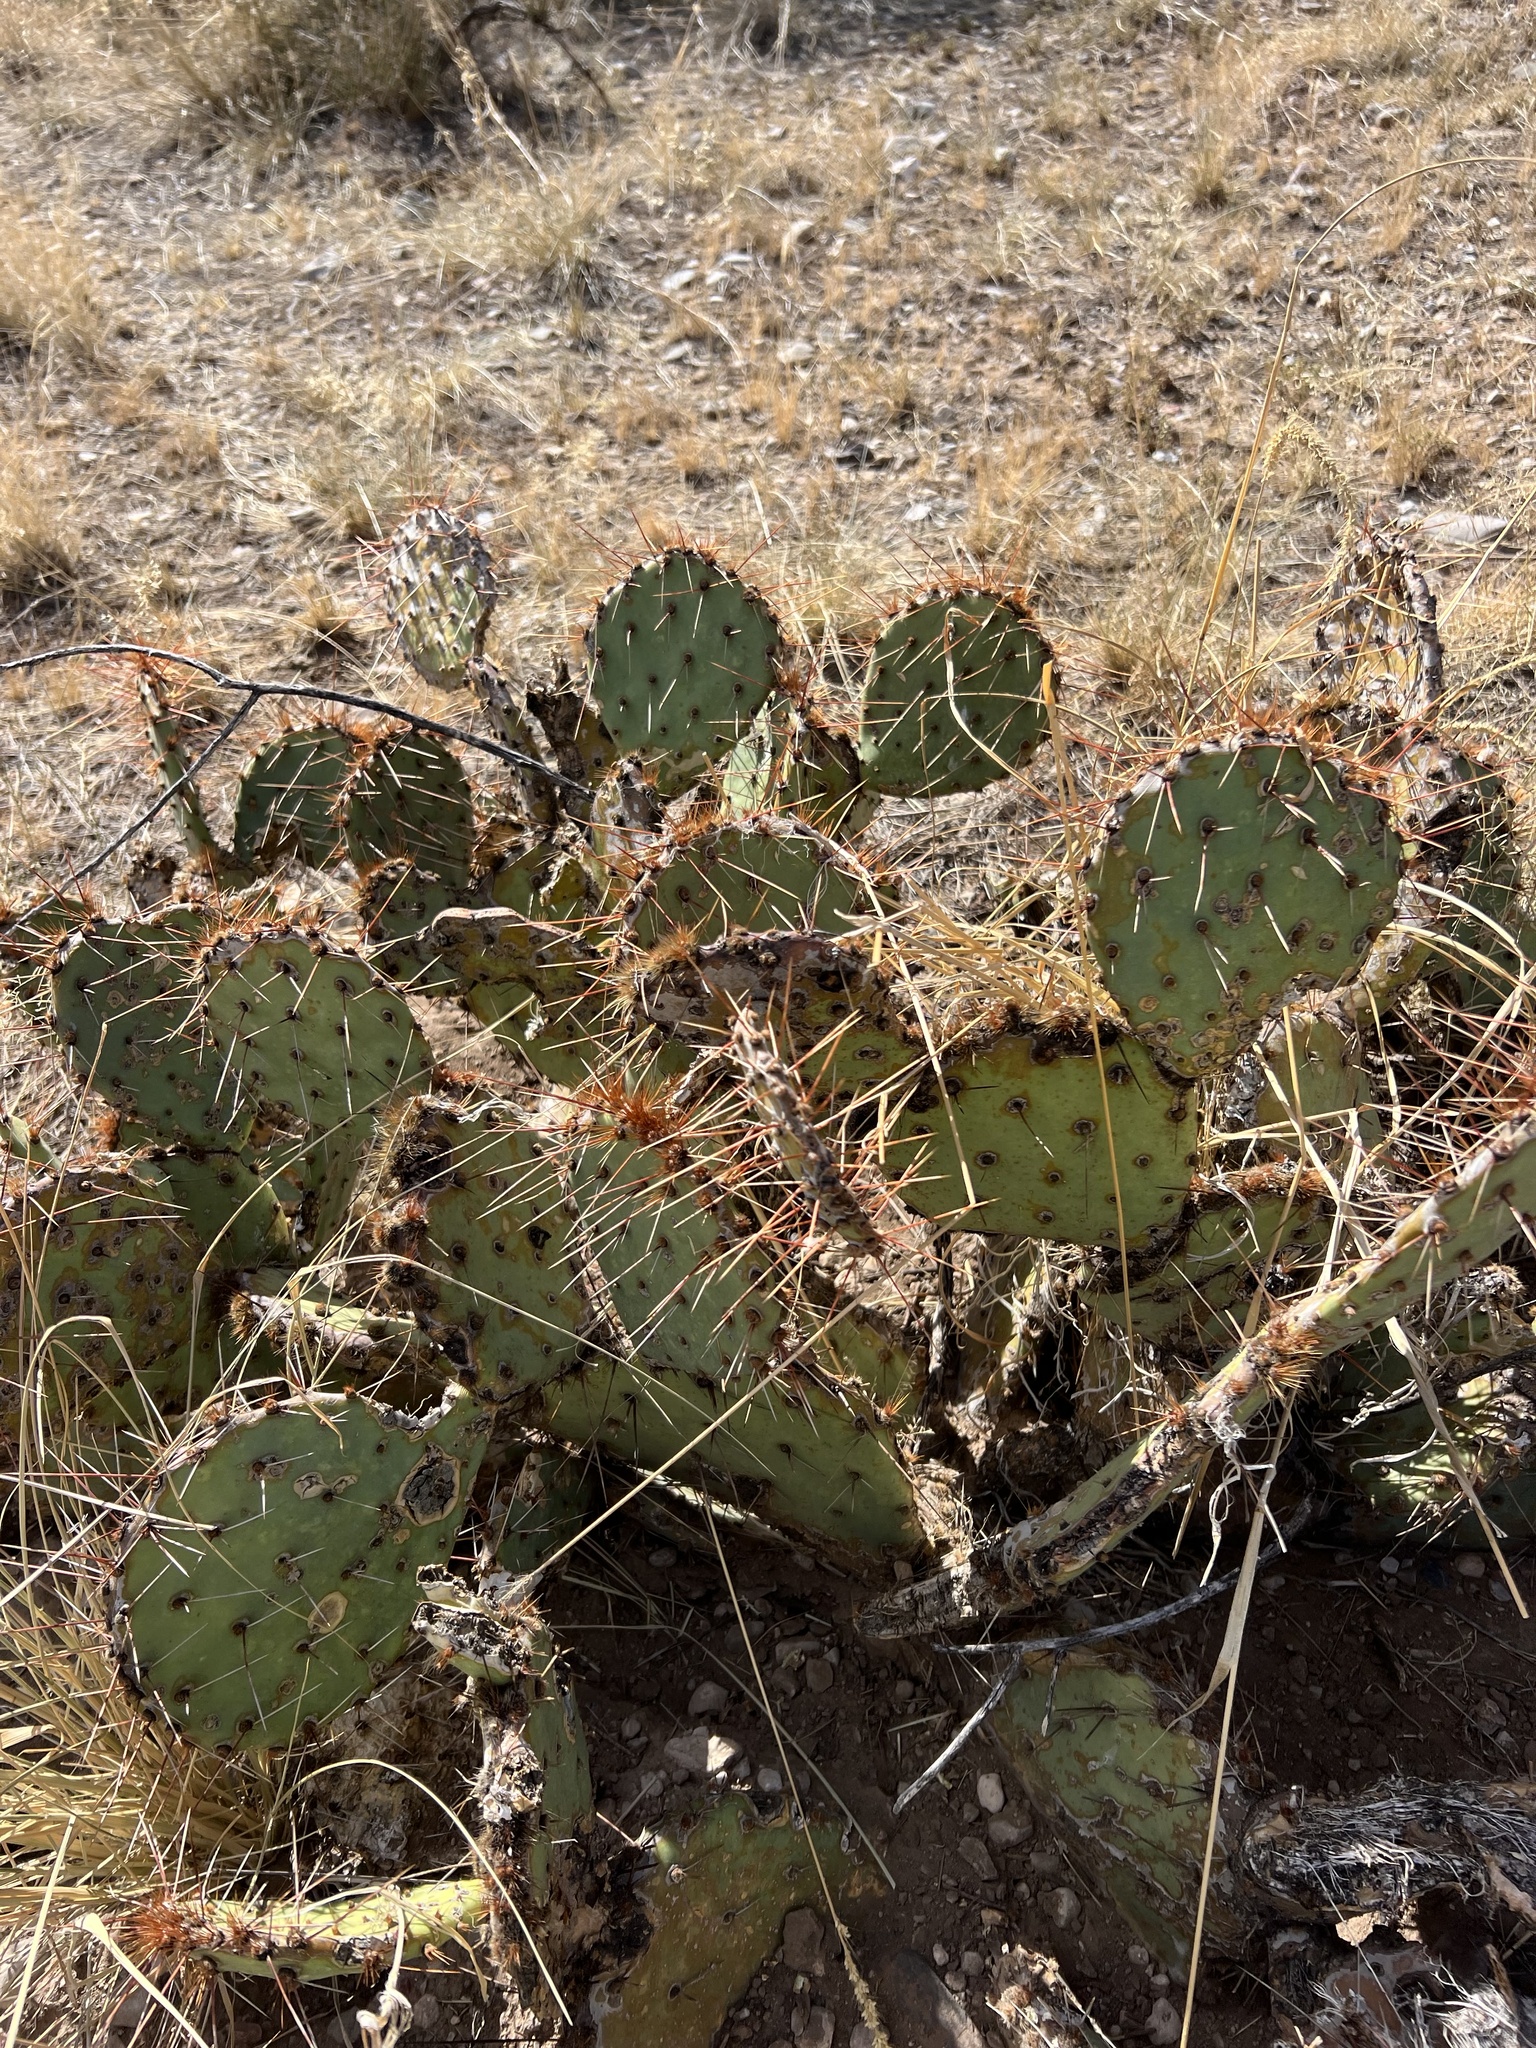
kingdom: Plantae
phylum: Tracheophyta
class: Magnoliopsida
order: Caryophyllales
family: Cactaceae
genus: Opuntia
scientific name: Opuntia phaeacantha
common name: New mexico prickly-pear
